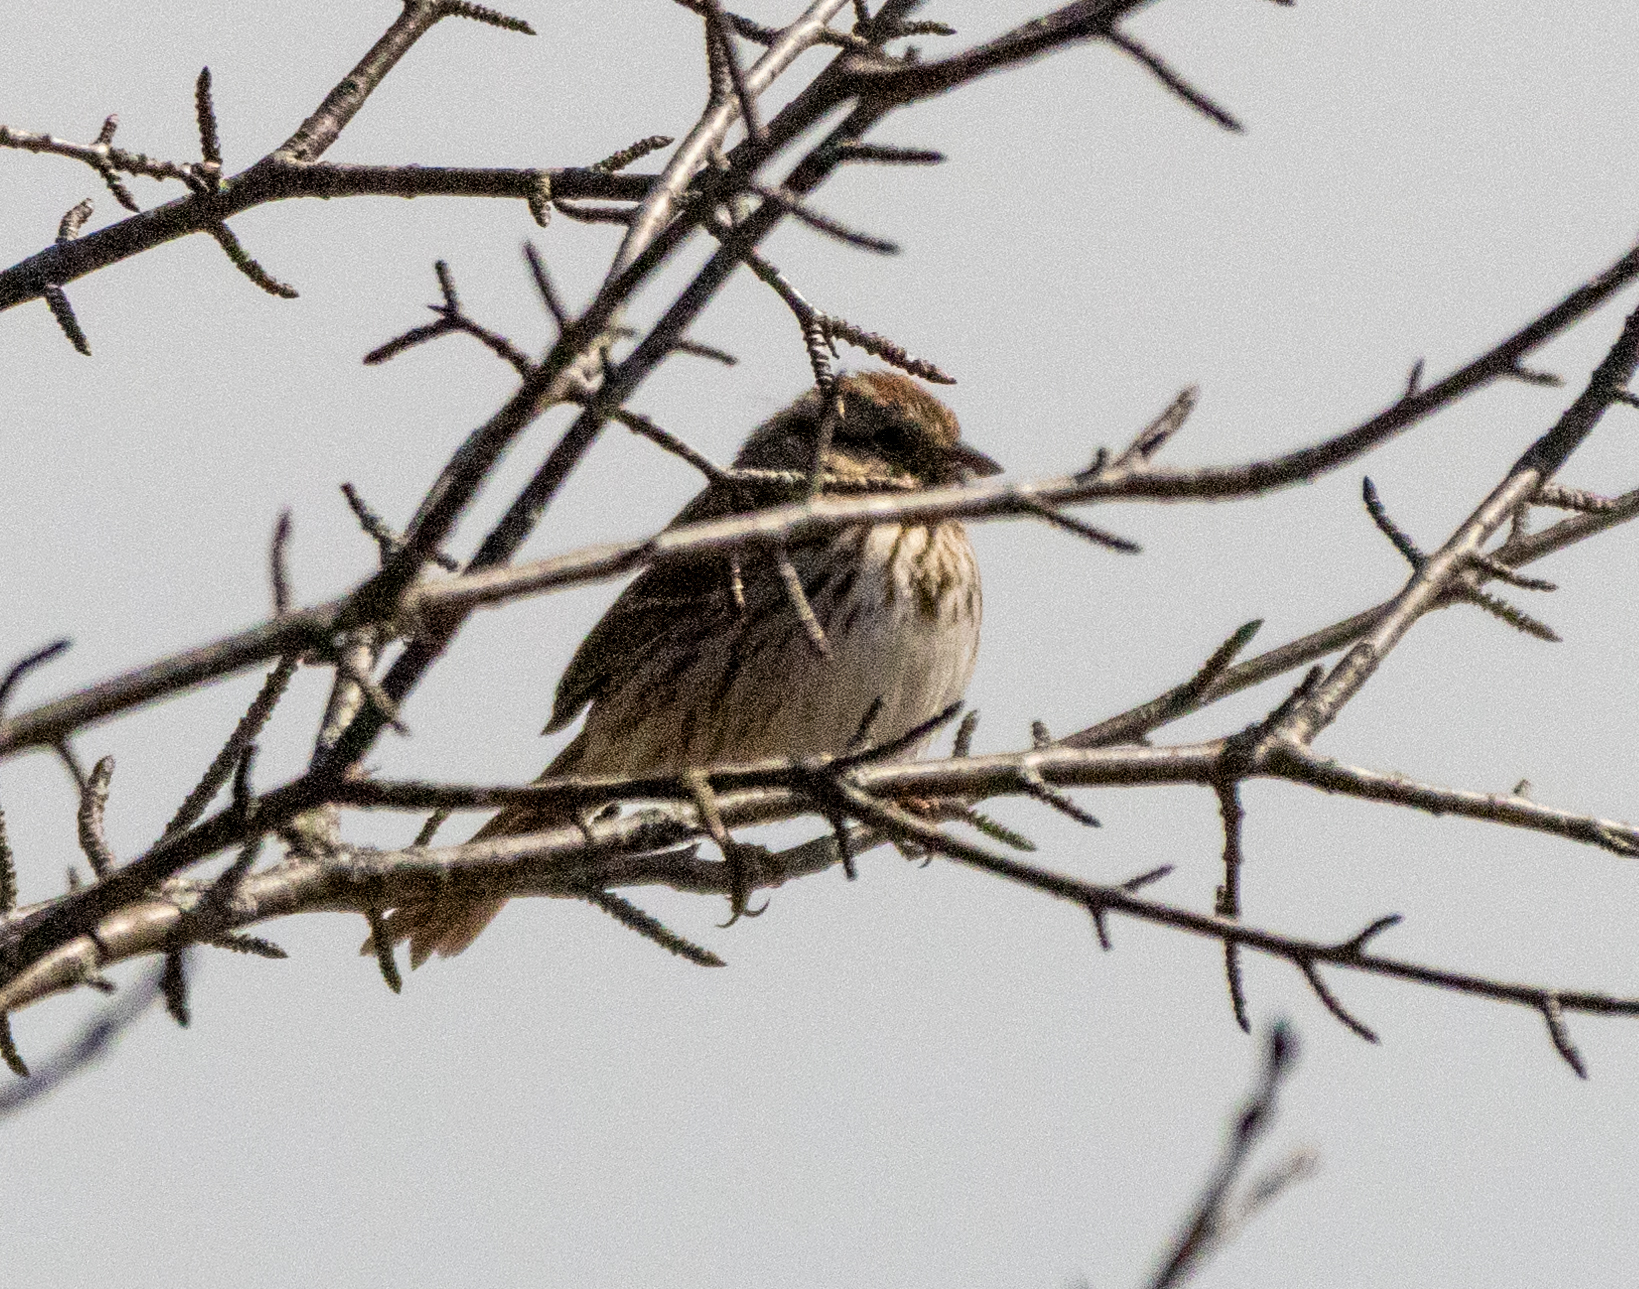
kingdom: Animalia
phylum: Chordata
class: Aves
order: Passeriformes
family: Passerellidae
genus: Melospiza
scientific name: Melospiza melodia
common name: Song sparrow
